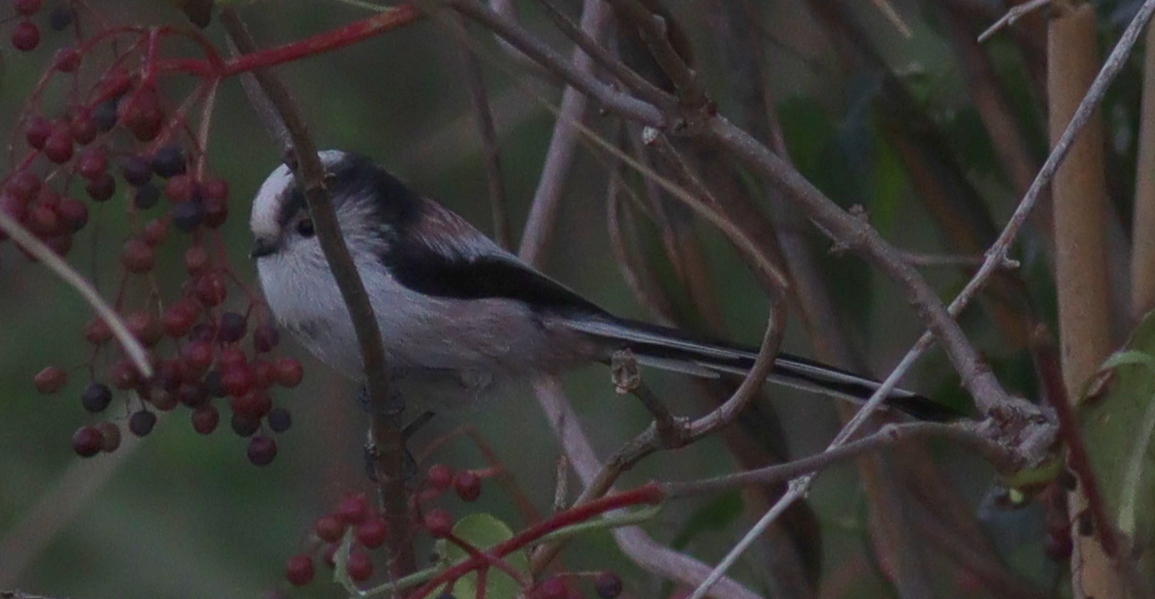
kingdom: Animalia
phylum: Chordata
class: Aves
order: Passeriformes
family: Aegithalidae
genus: Aegithalos
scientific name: Aegithalos caudatus
